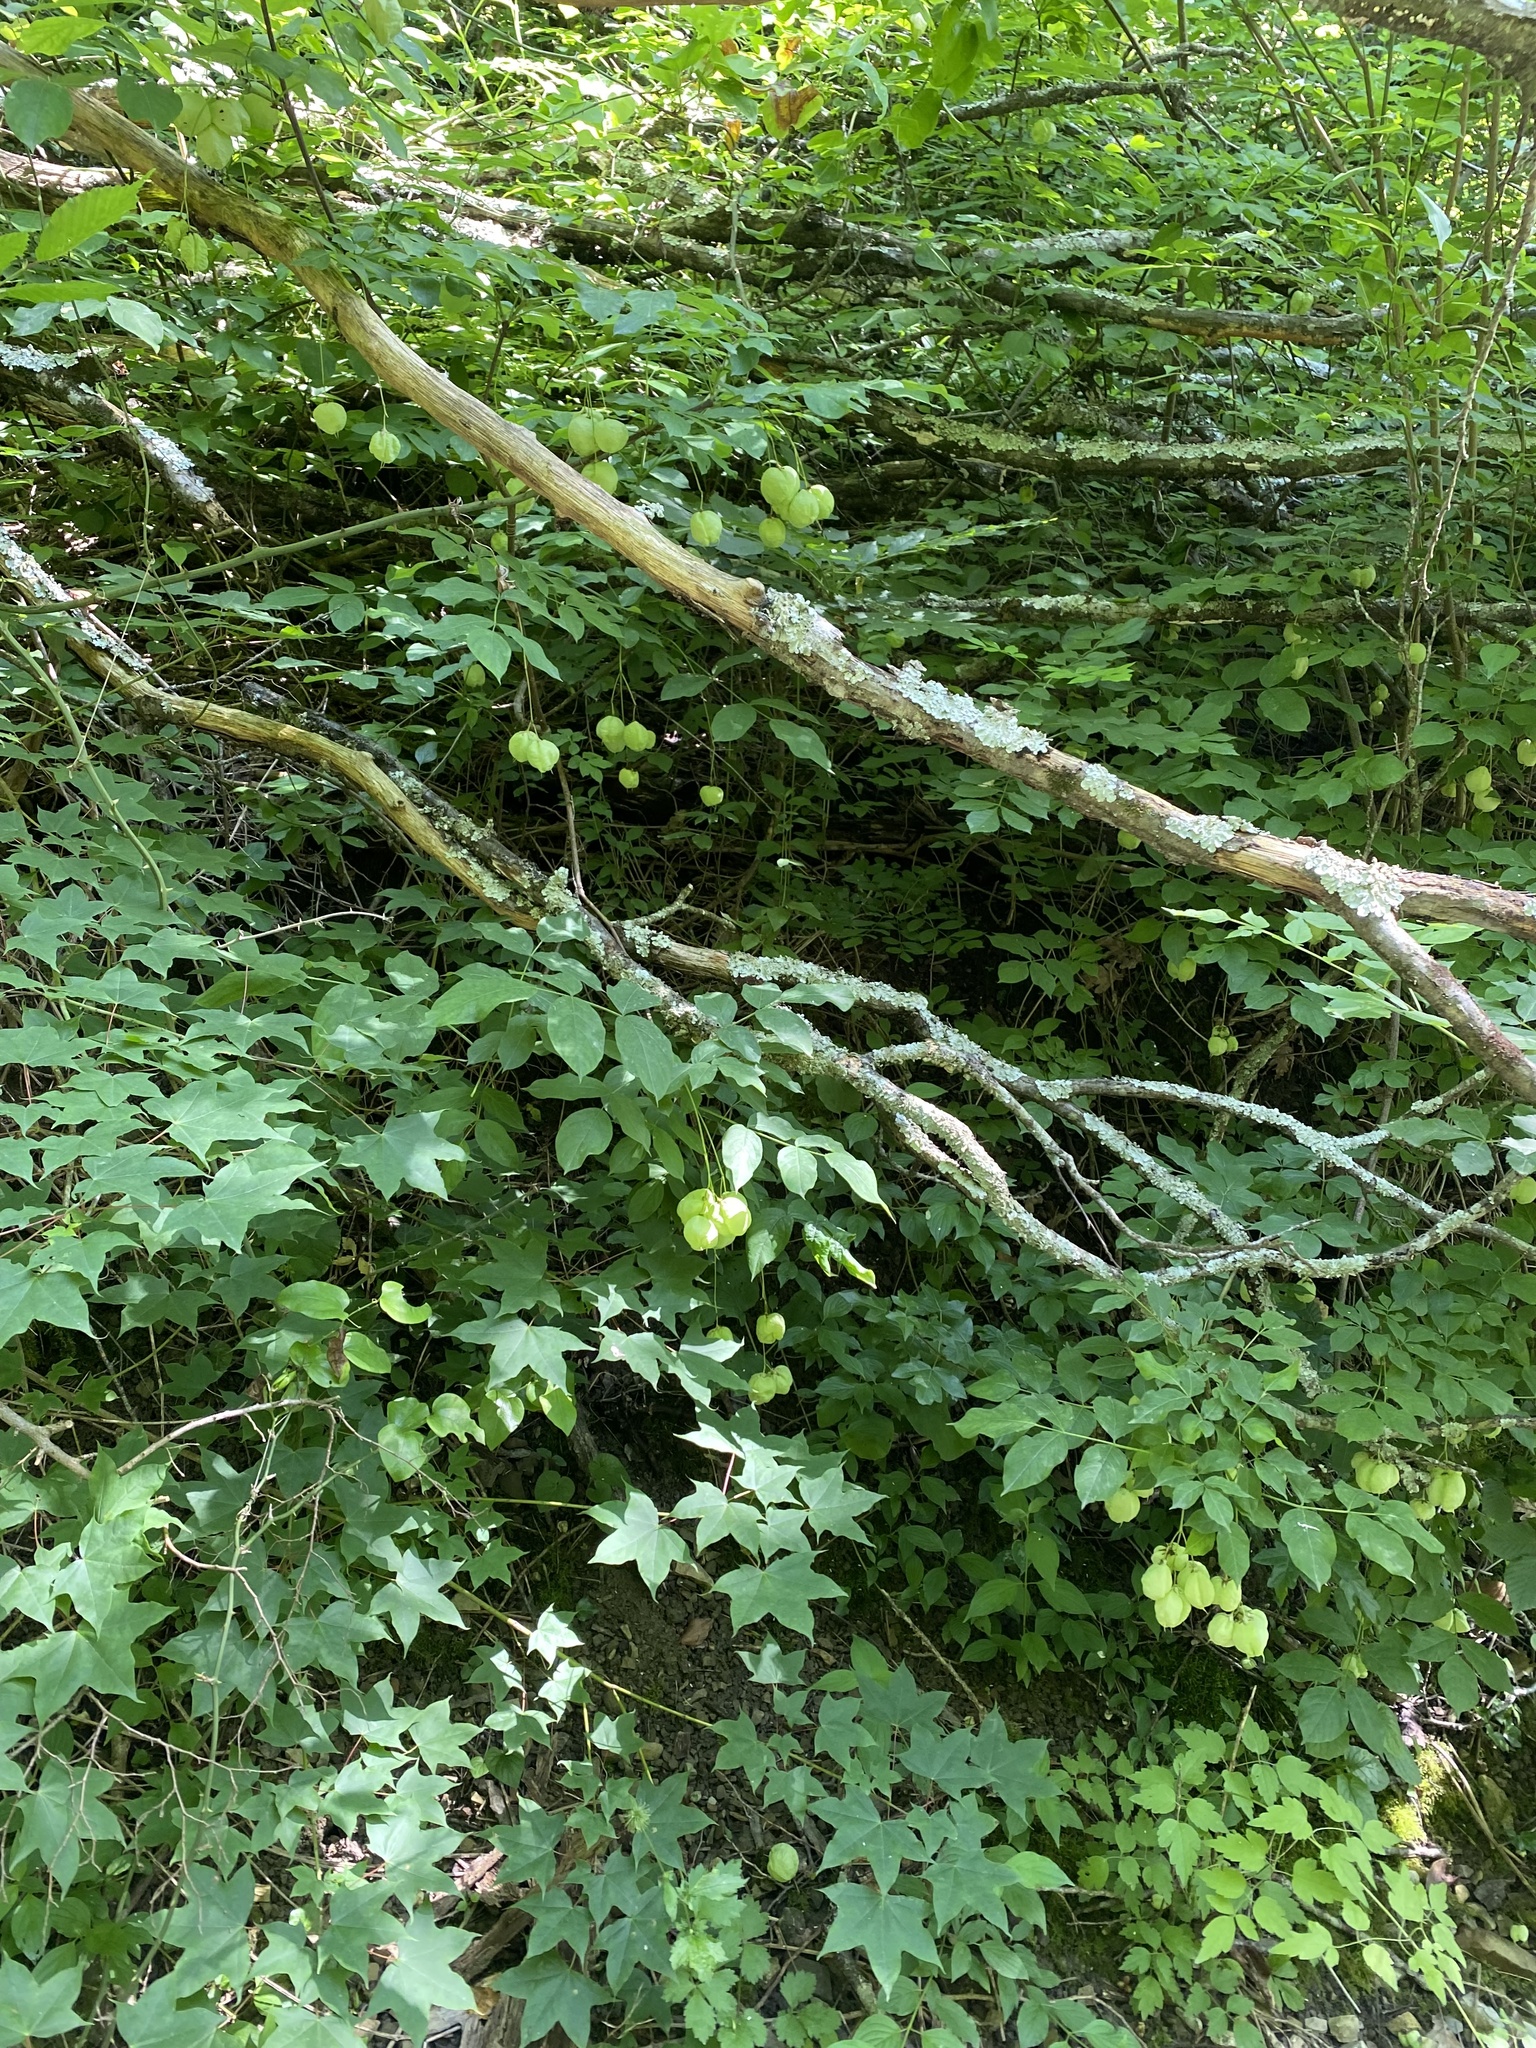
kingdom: Plantae
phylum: Tracheophyta
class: Magnoliopsida
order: Crossosomatales
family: Staphyleaceae
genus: Staphylea
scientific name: Staphylea pinnata
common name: Bladdernut
